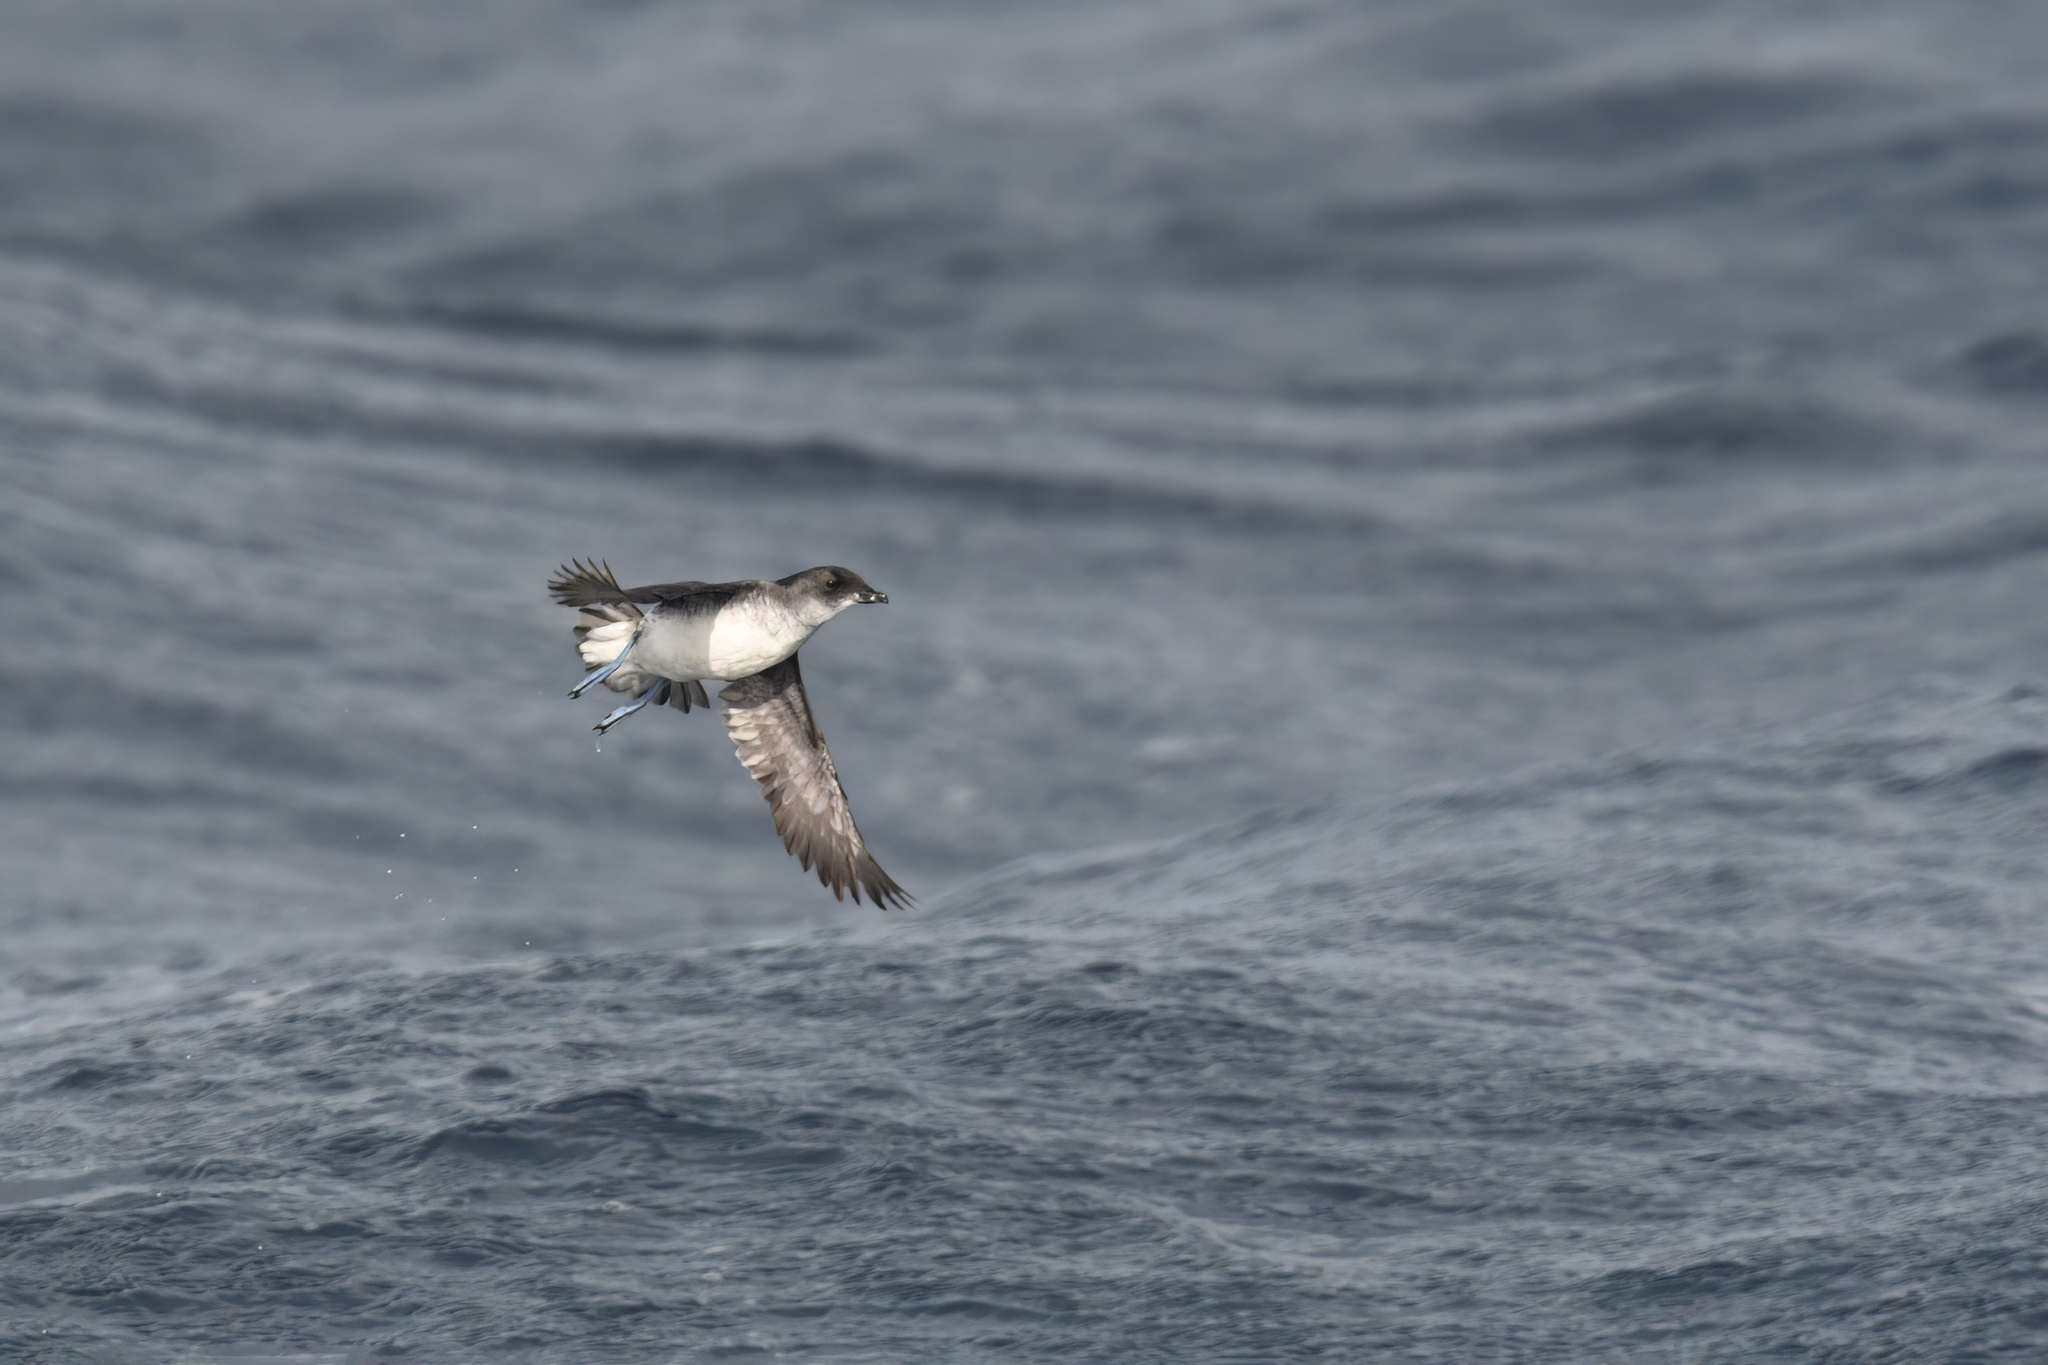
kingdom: Animalia
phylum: Chordata
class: Aves
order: Procellariiformes
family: Pelecanoididae
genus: Pelecanoides
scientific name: Pelecanoides urinatrix
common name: Common diving-petrel
